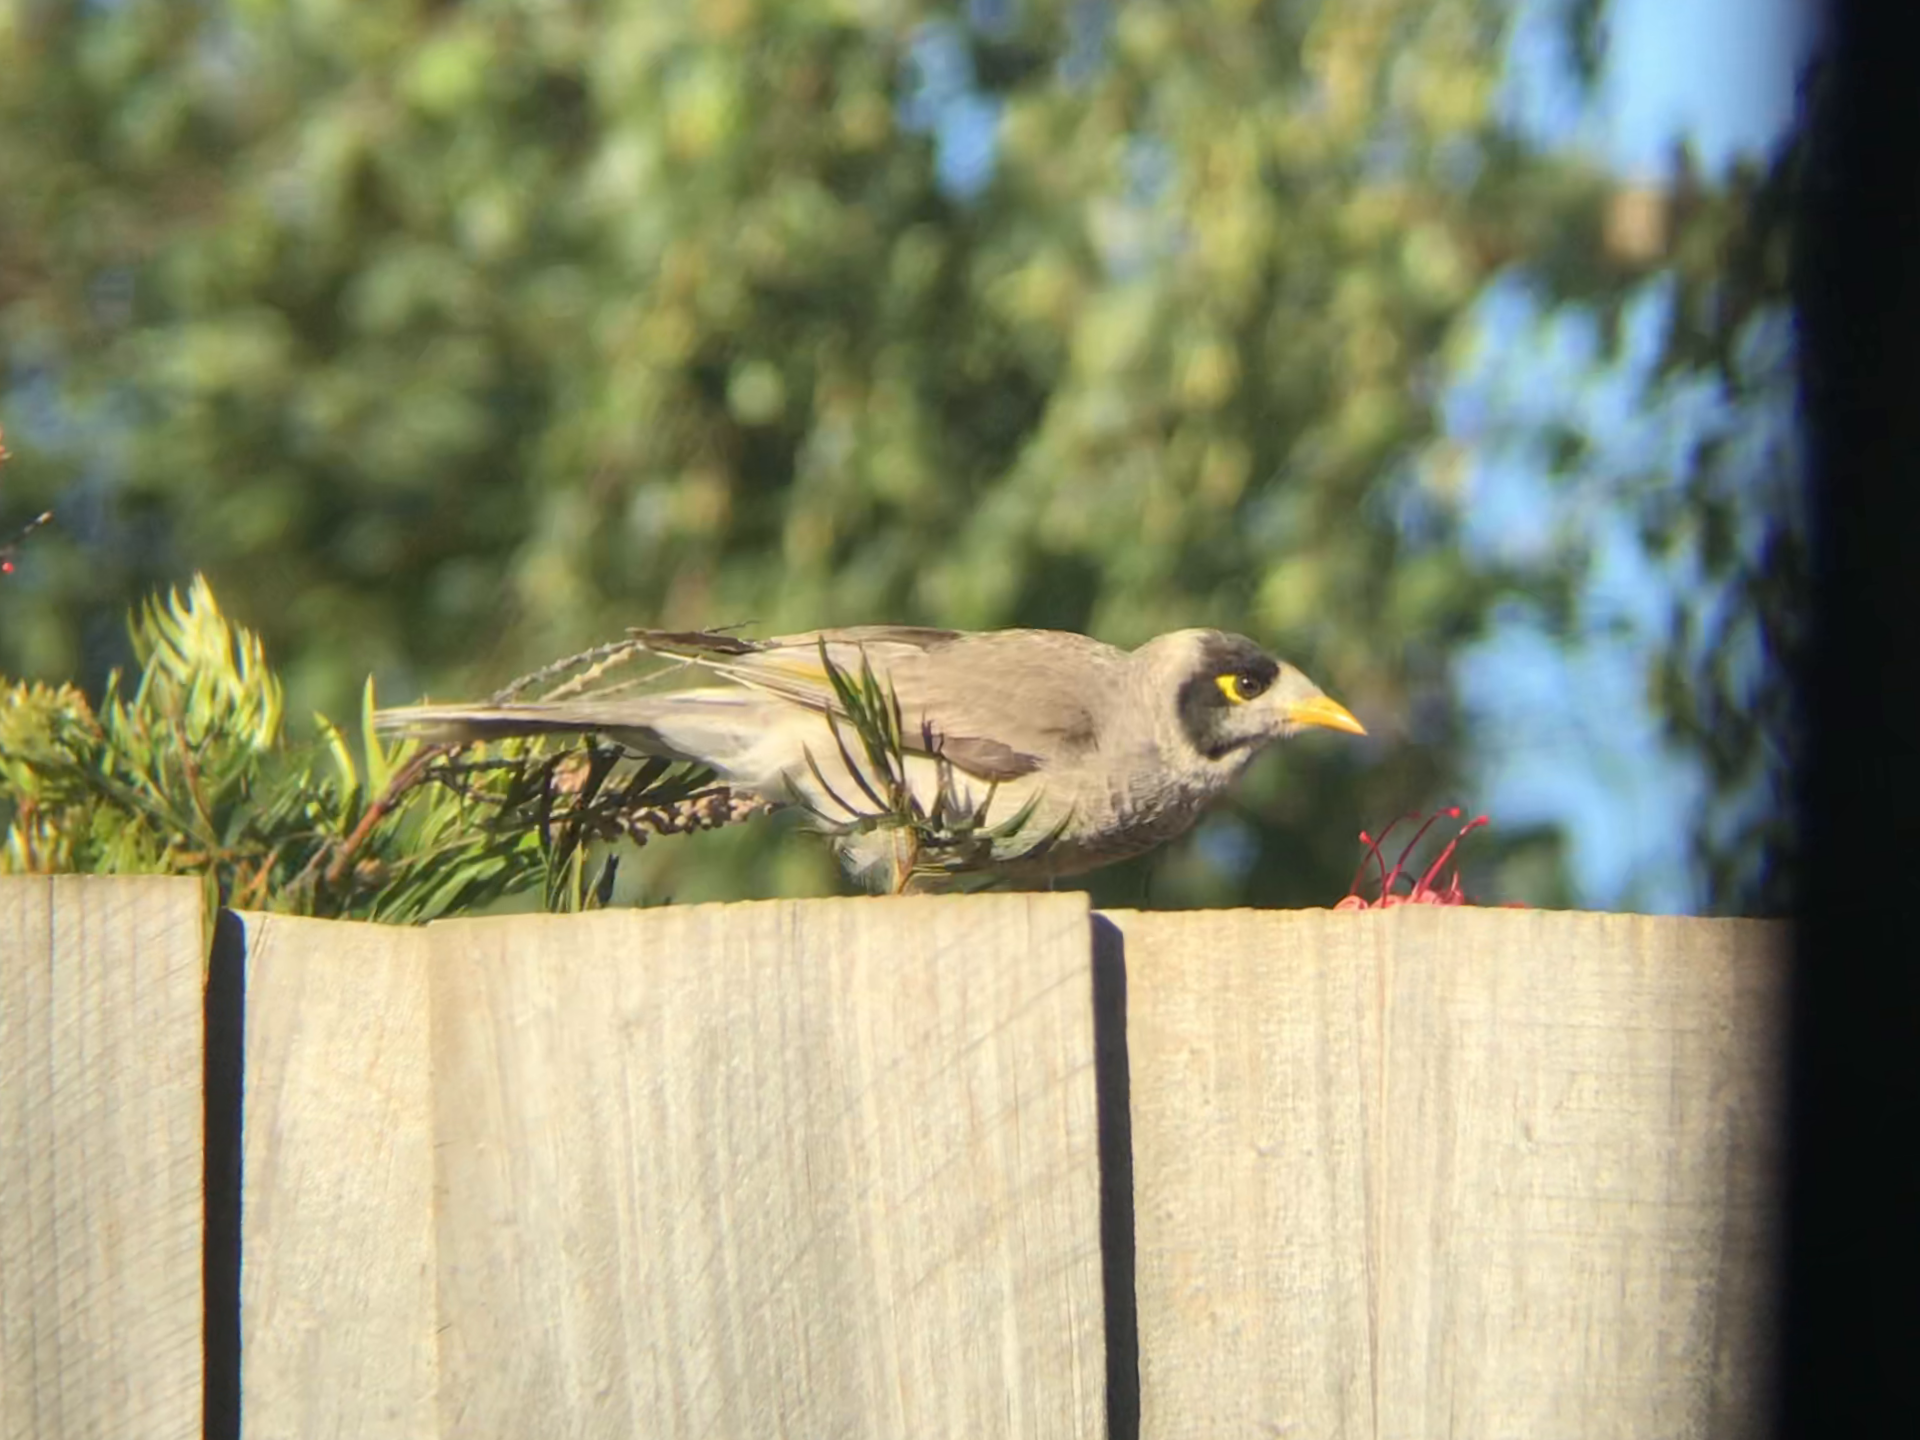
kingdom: Animalia
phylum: Chordata
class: Aves
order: Passeriformes
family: Meliphagidae
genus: Manorina
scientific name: Manorina melanocephala
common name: Noisy miner
